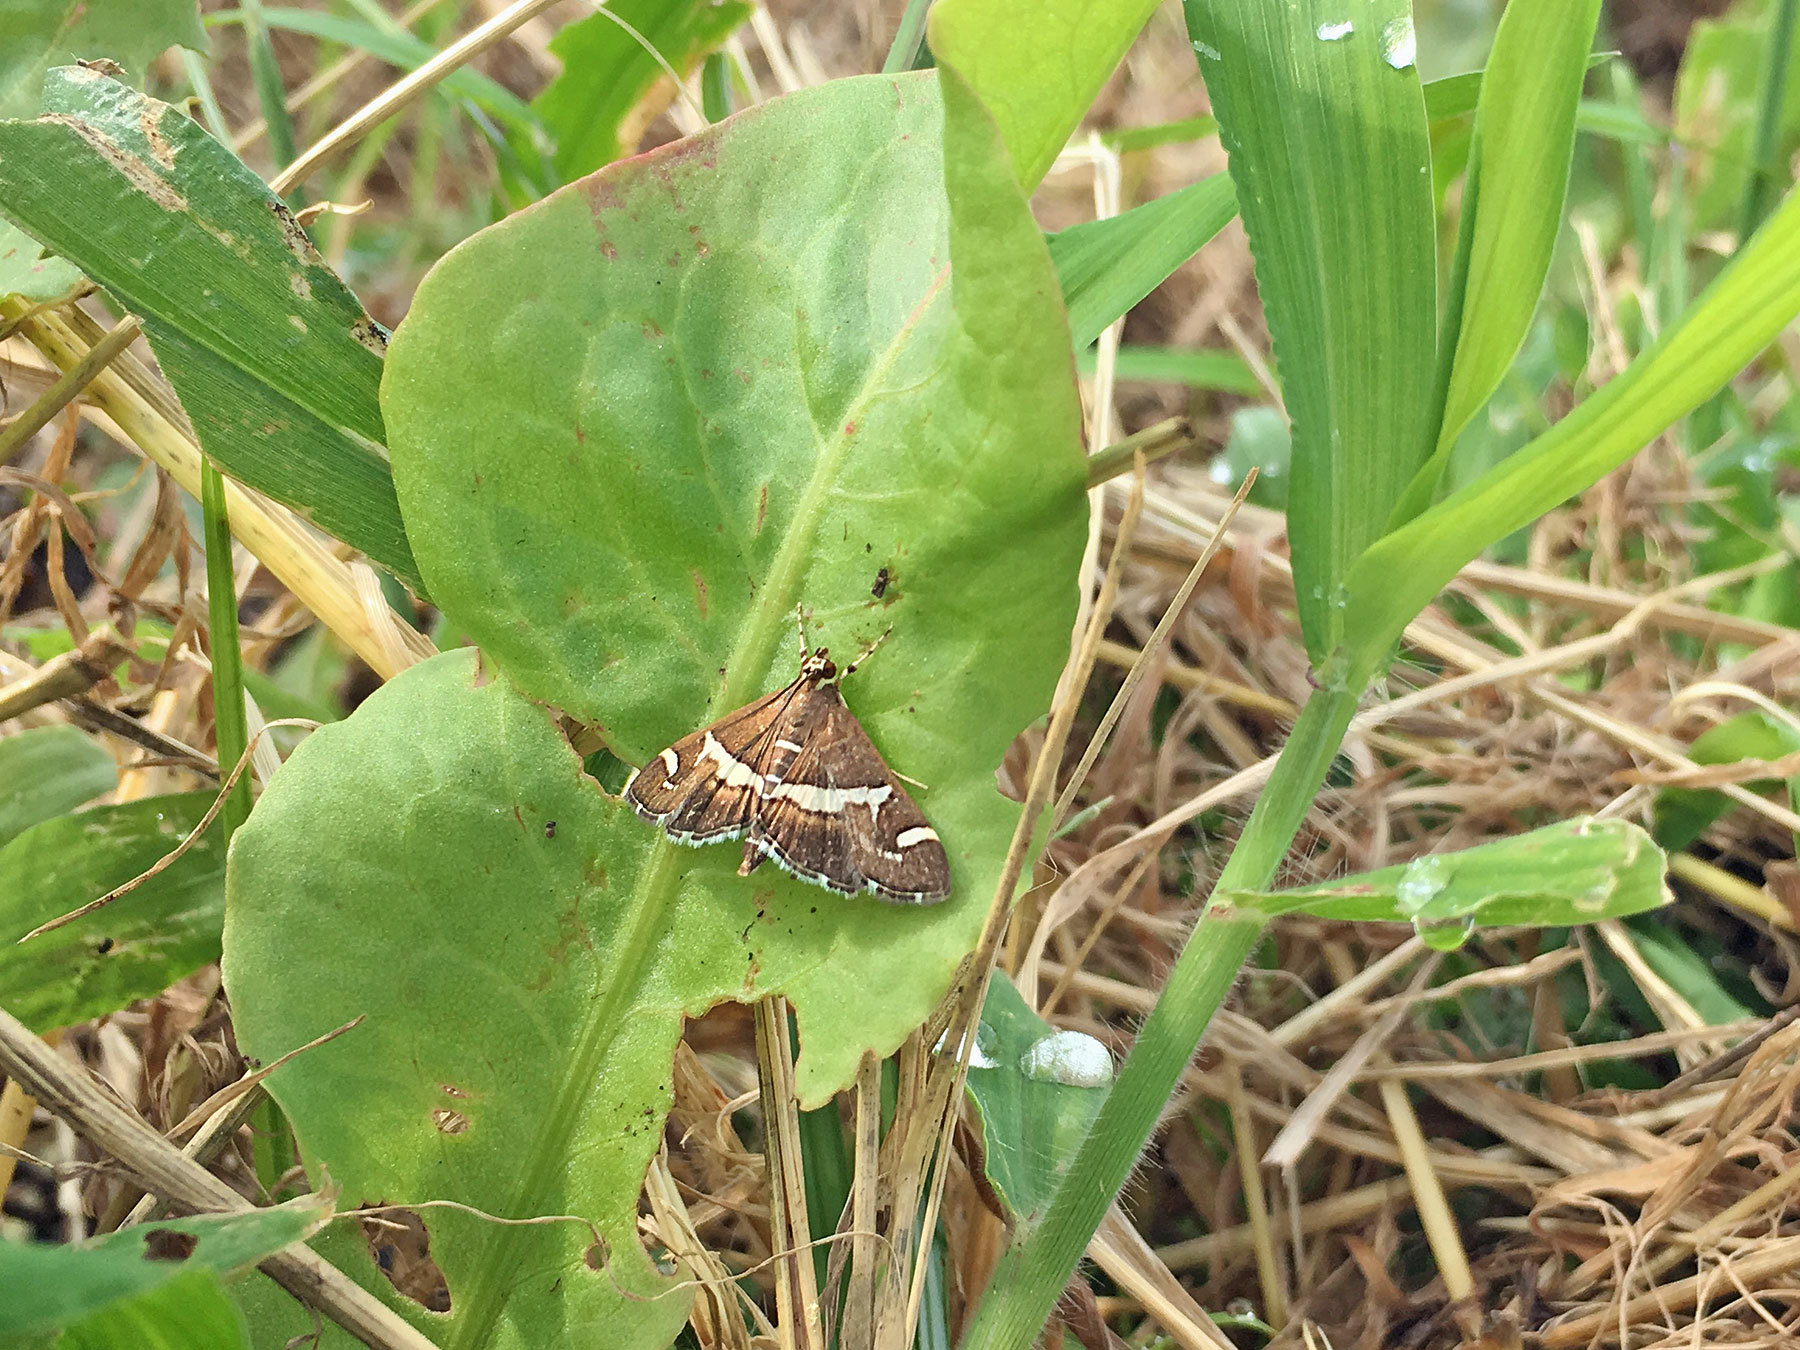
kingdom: Animalia
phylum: Arthropoda
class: Insecta
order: Lepidoptera
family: Crambidae
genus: Spoladea
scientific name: Spoladea recurvalis
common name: Beet webworm moth
